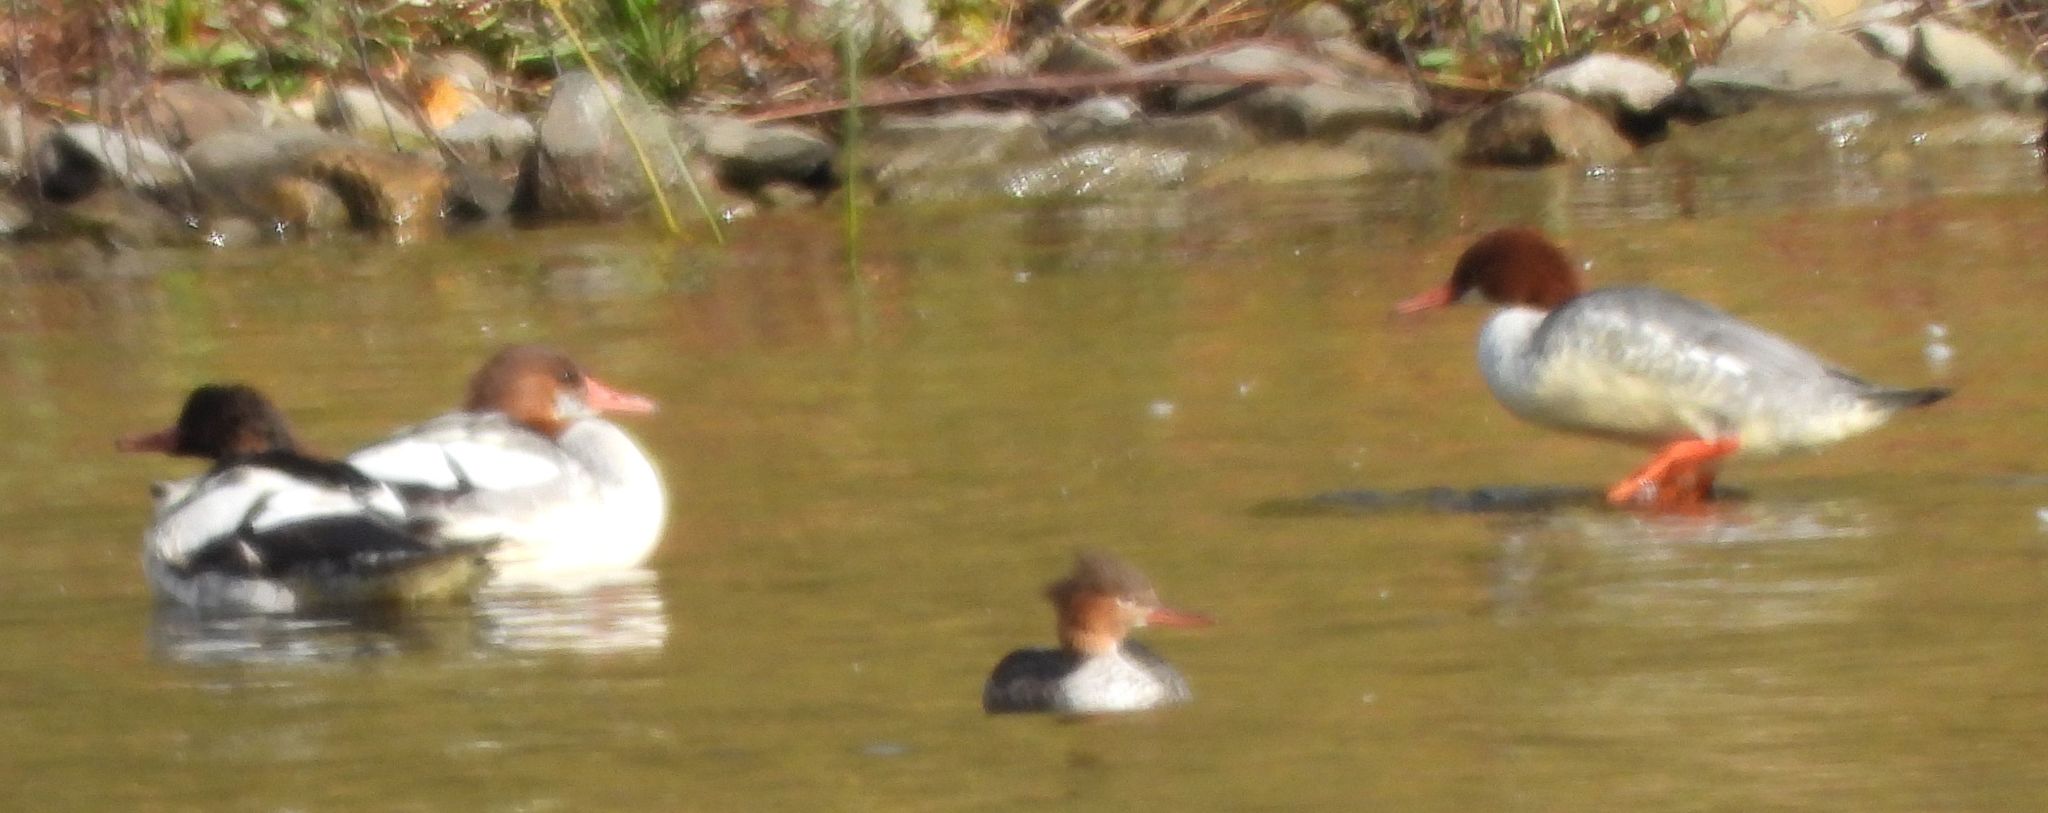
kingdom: Animalia
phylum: Chordata
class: Aves
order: Anseriformes
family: Anatidae
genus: Mergus
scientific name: Mergus merganser
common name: Common merganser
